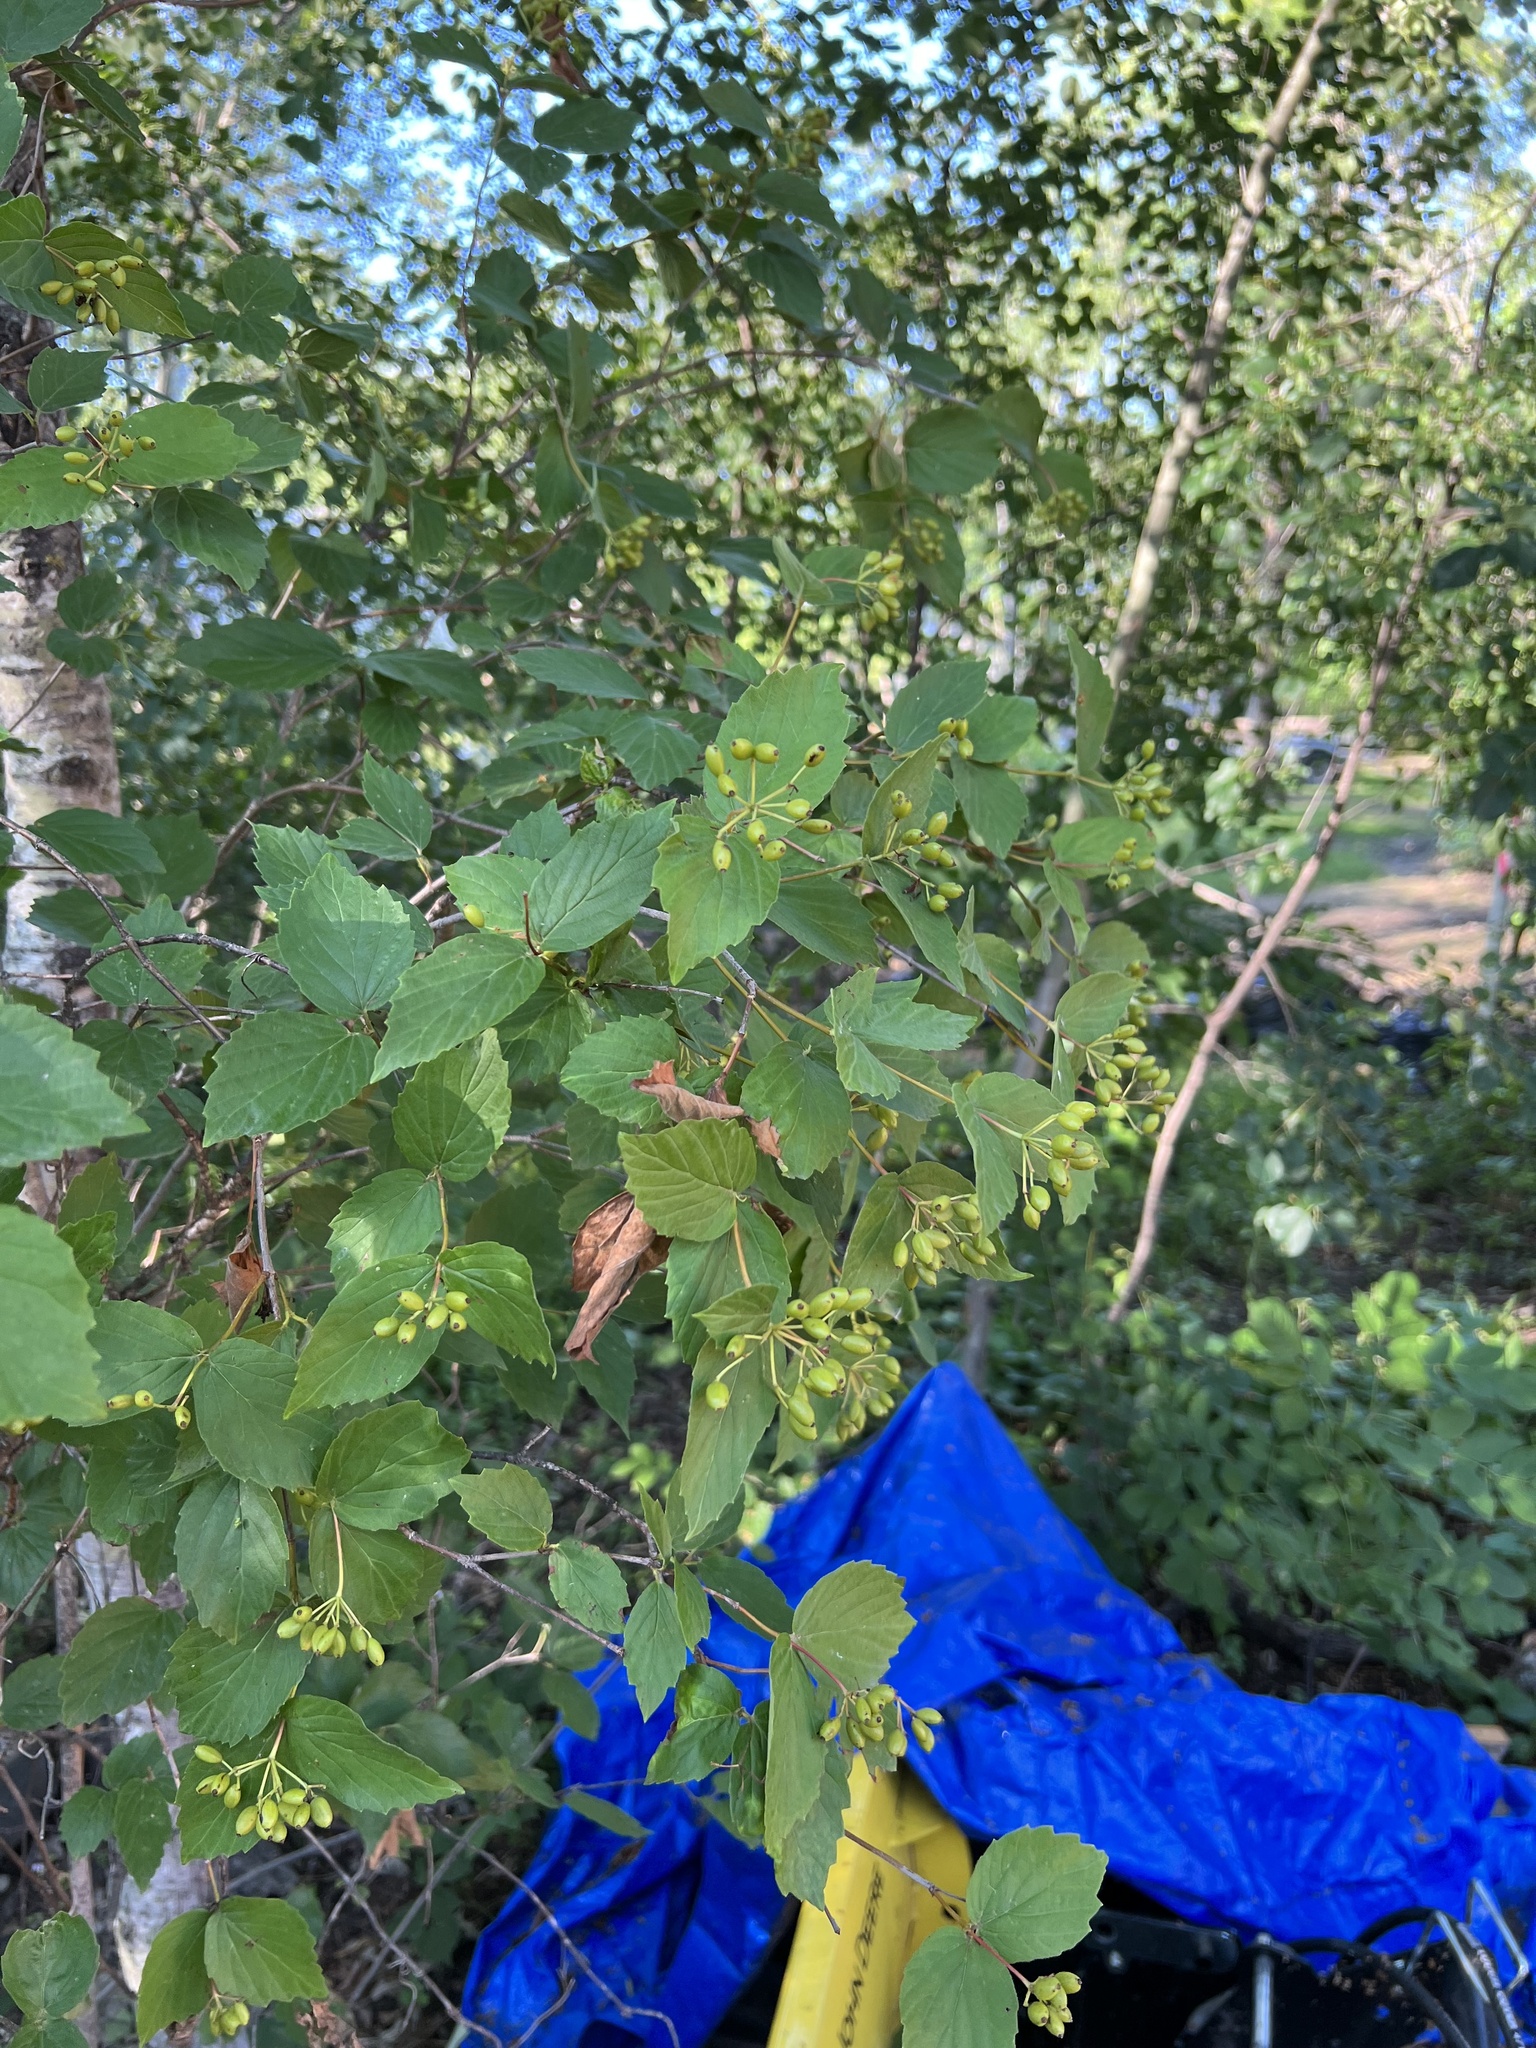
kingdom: Plantae
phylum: Tracheophyta
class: Magnoliopsida
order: Dipsacales
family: Viburnaceae
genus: Viburnum
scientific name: Viburnum rafinesqueanum
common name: Downy arrow-wood
